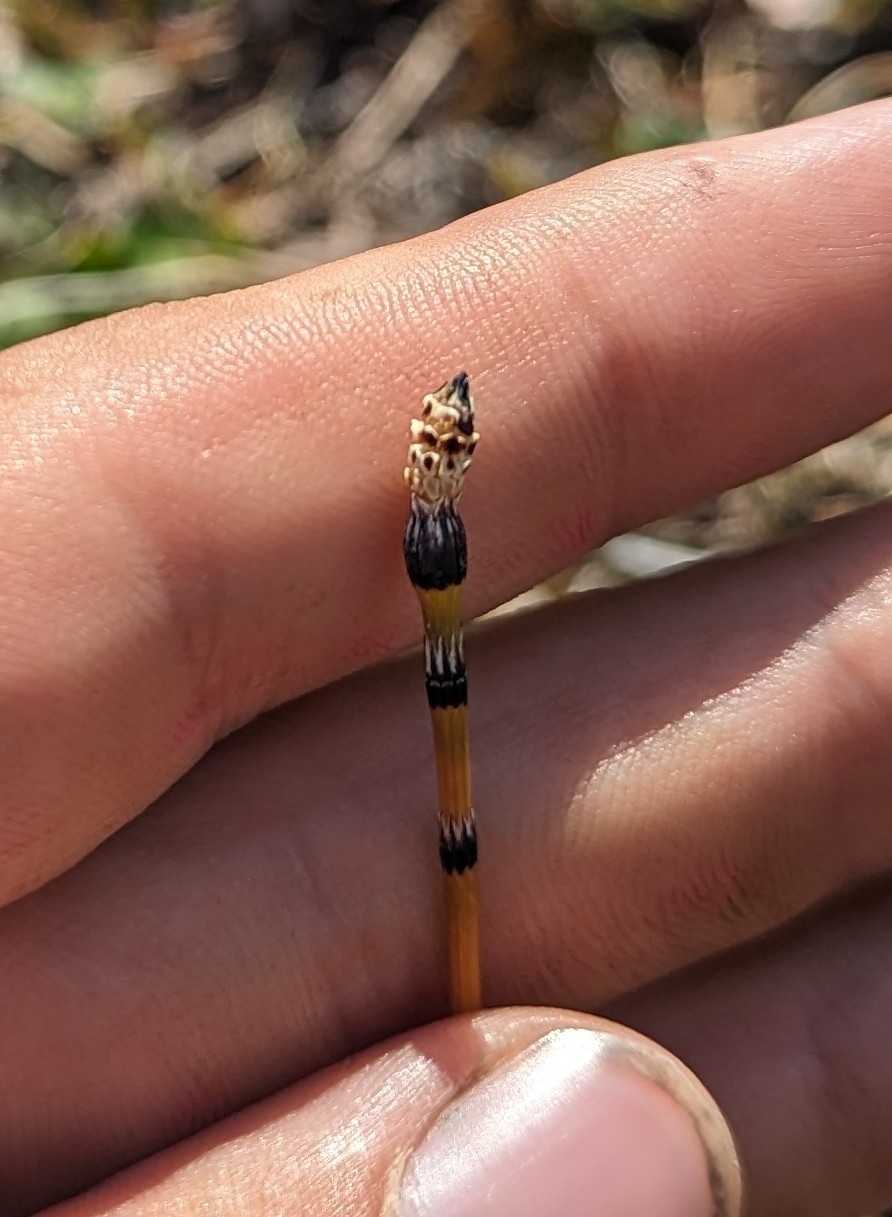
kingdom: Plantae
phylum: Tracheophyta
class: Polypodiopsida
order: Equisetales
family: Equisetaceae
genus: Equisetum
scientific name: Equisetum variegatum
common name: Variegated horsetail
